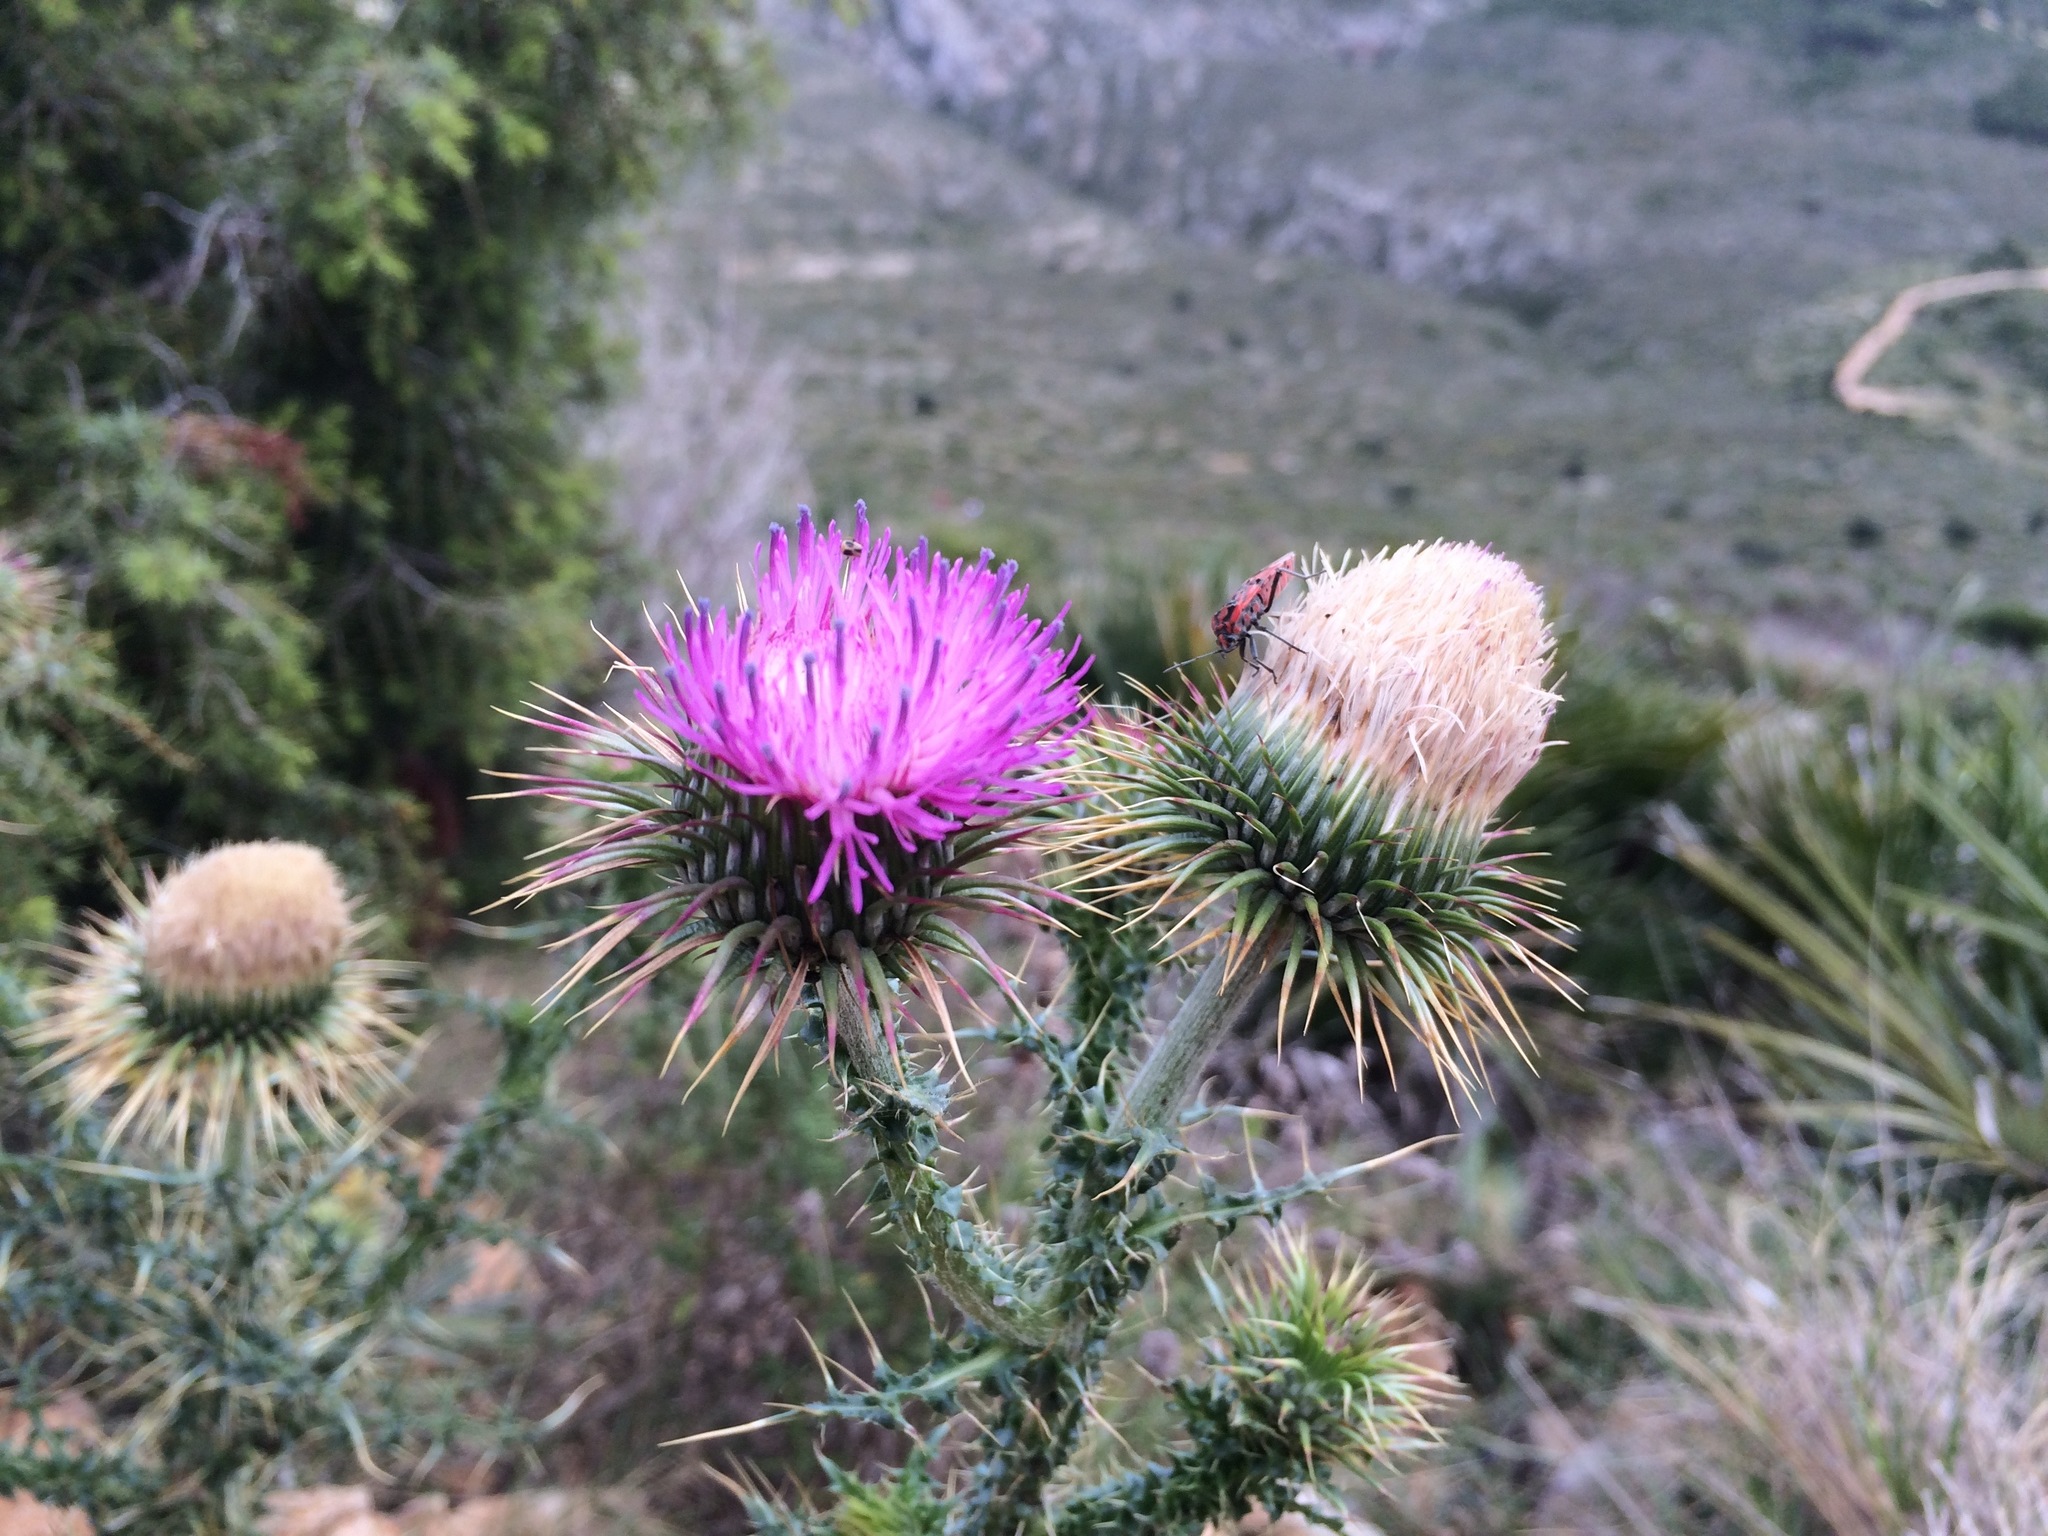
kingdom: Plantae
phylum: Tracheophyta
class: Magnoliopsida
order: Asterales
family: Asteraceae
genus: Carduus
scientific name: Carduus nigrescens
